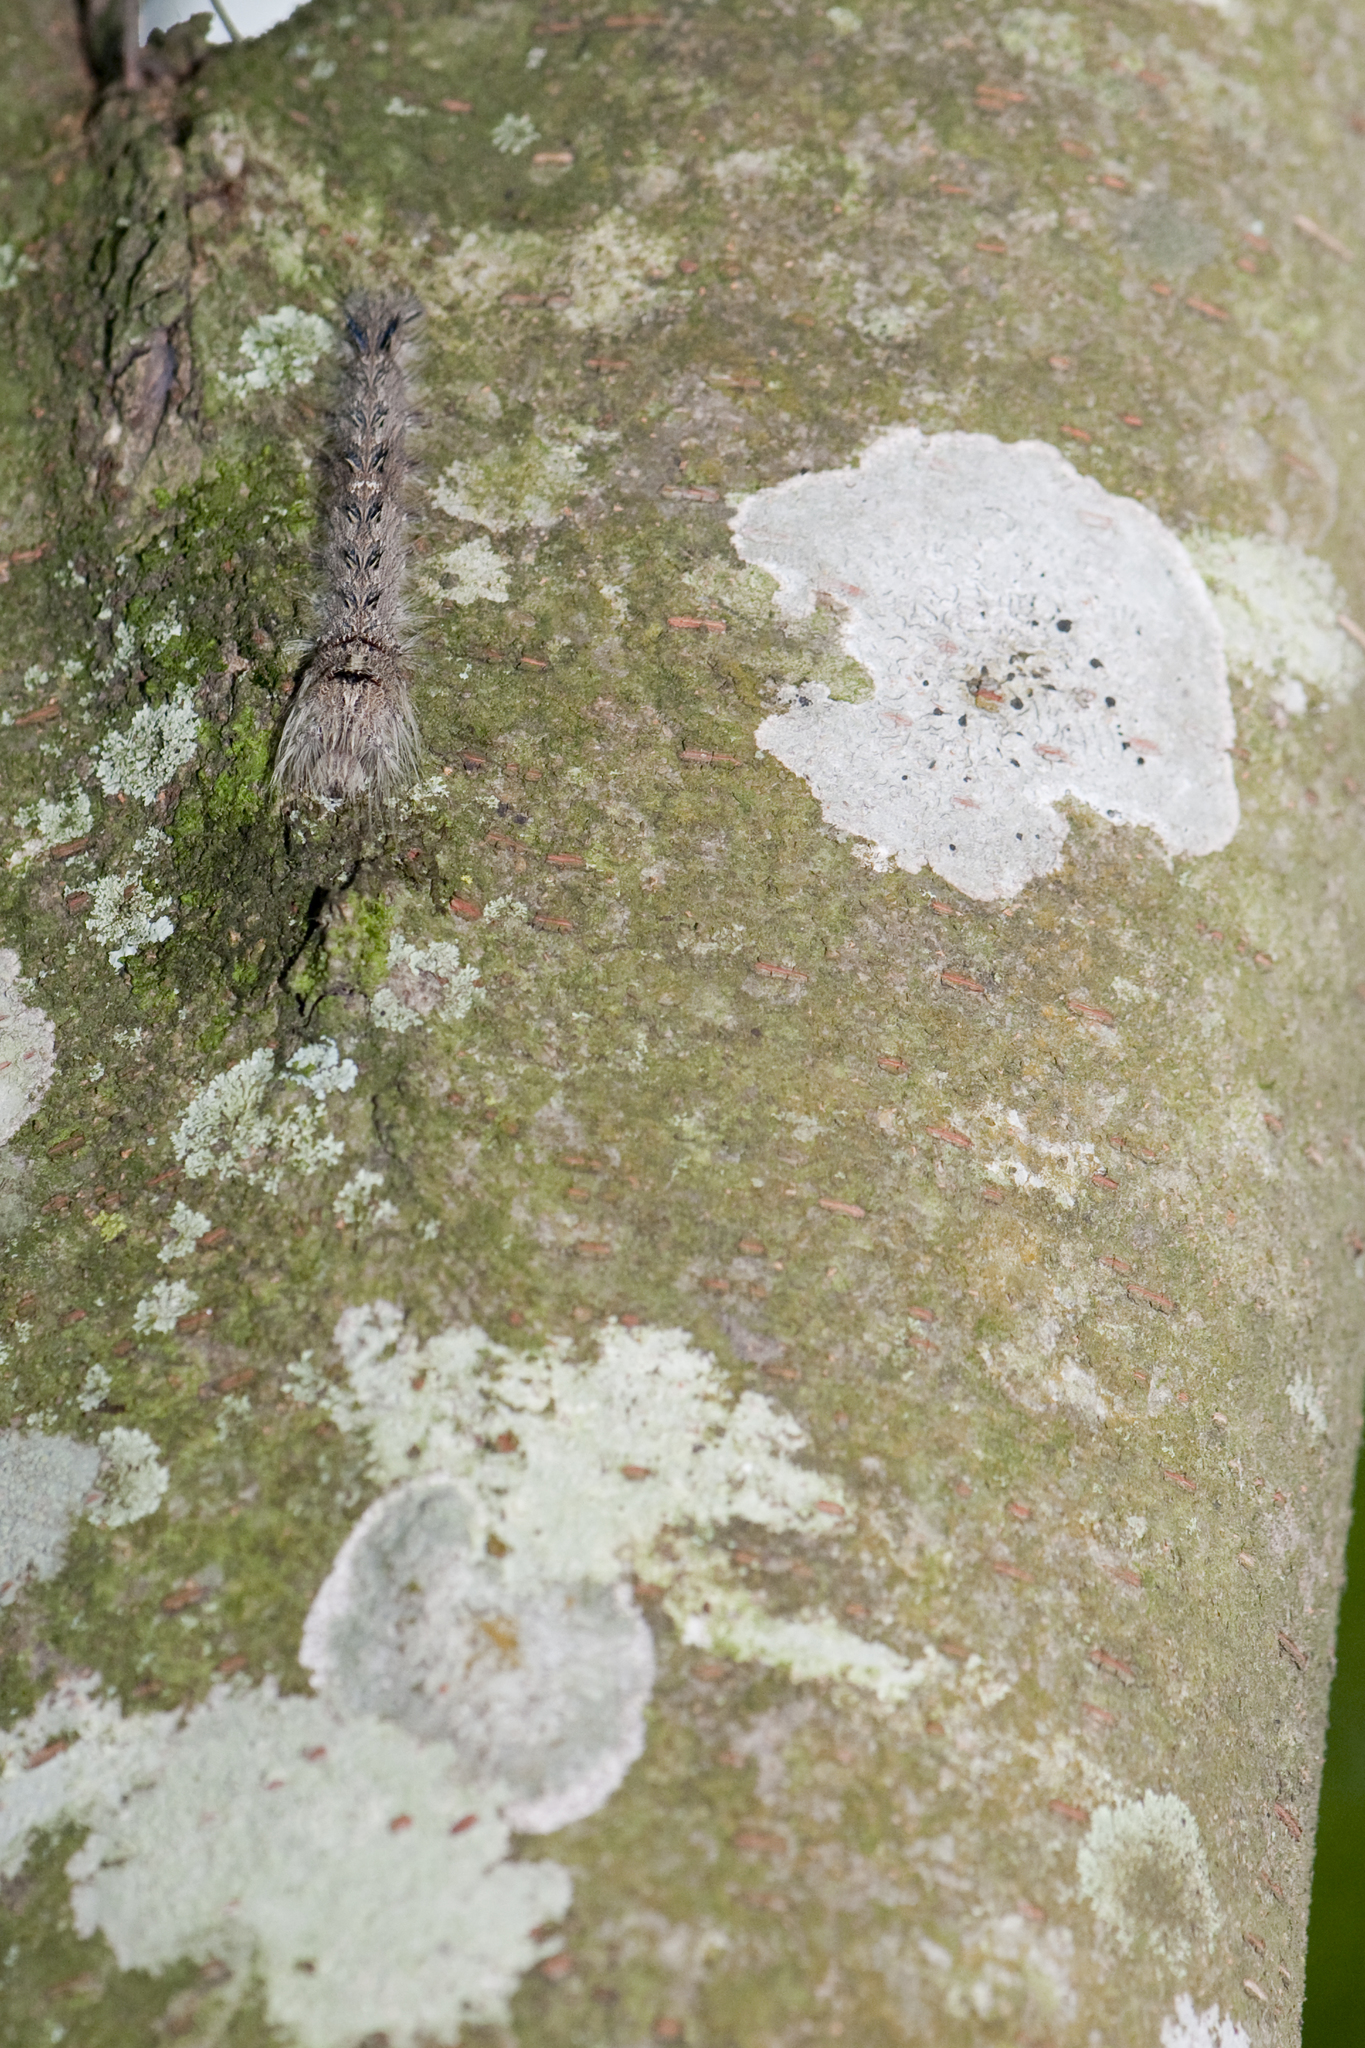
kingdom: Animalia
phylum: Arthropoda
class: Insecta
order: Lepidoptera
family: Lasiocampidae
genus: Lebeda
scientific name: Lebeda nobilis
